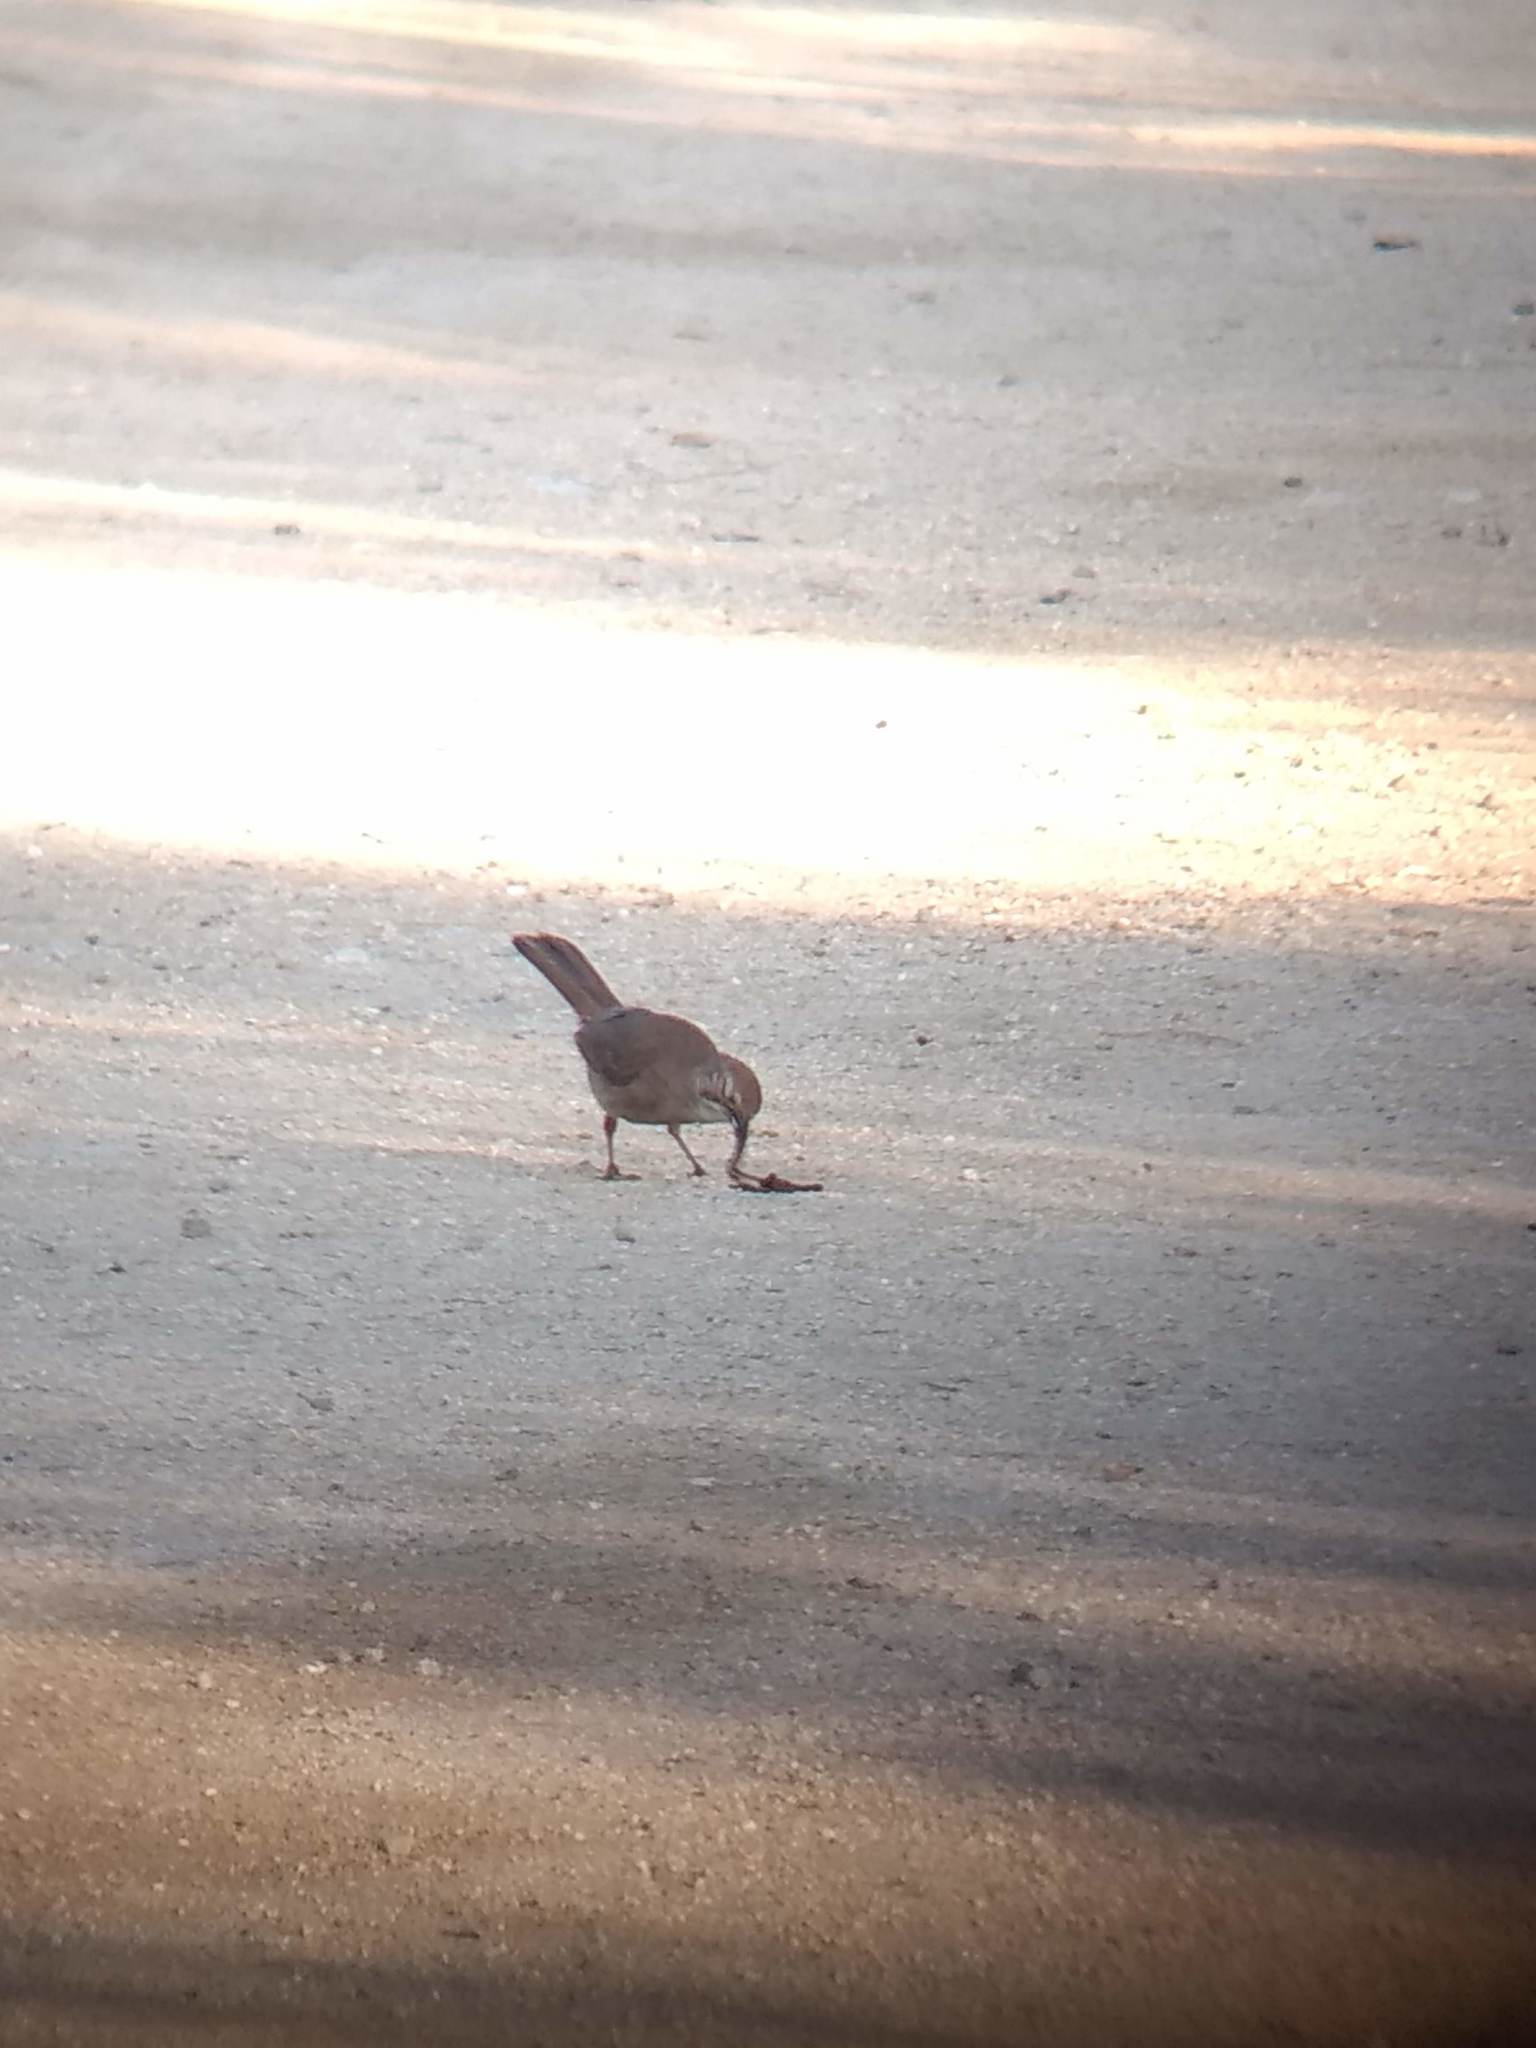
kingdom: Animalia
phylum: Chordata
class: Aves
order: Passeriformes
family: Mimidae
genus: Toxostoma
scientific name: Toxostoma redivivum
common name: California thrasher
